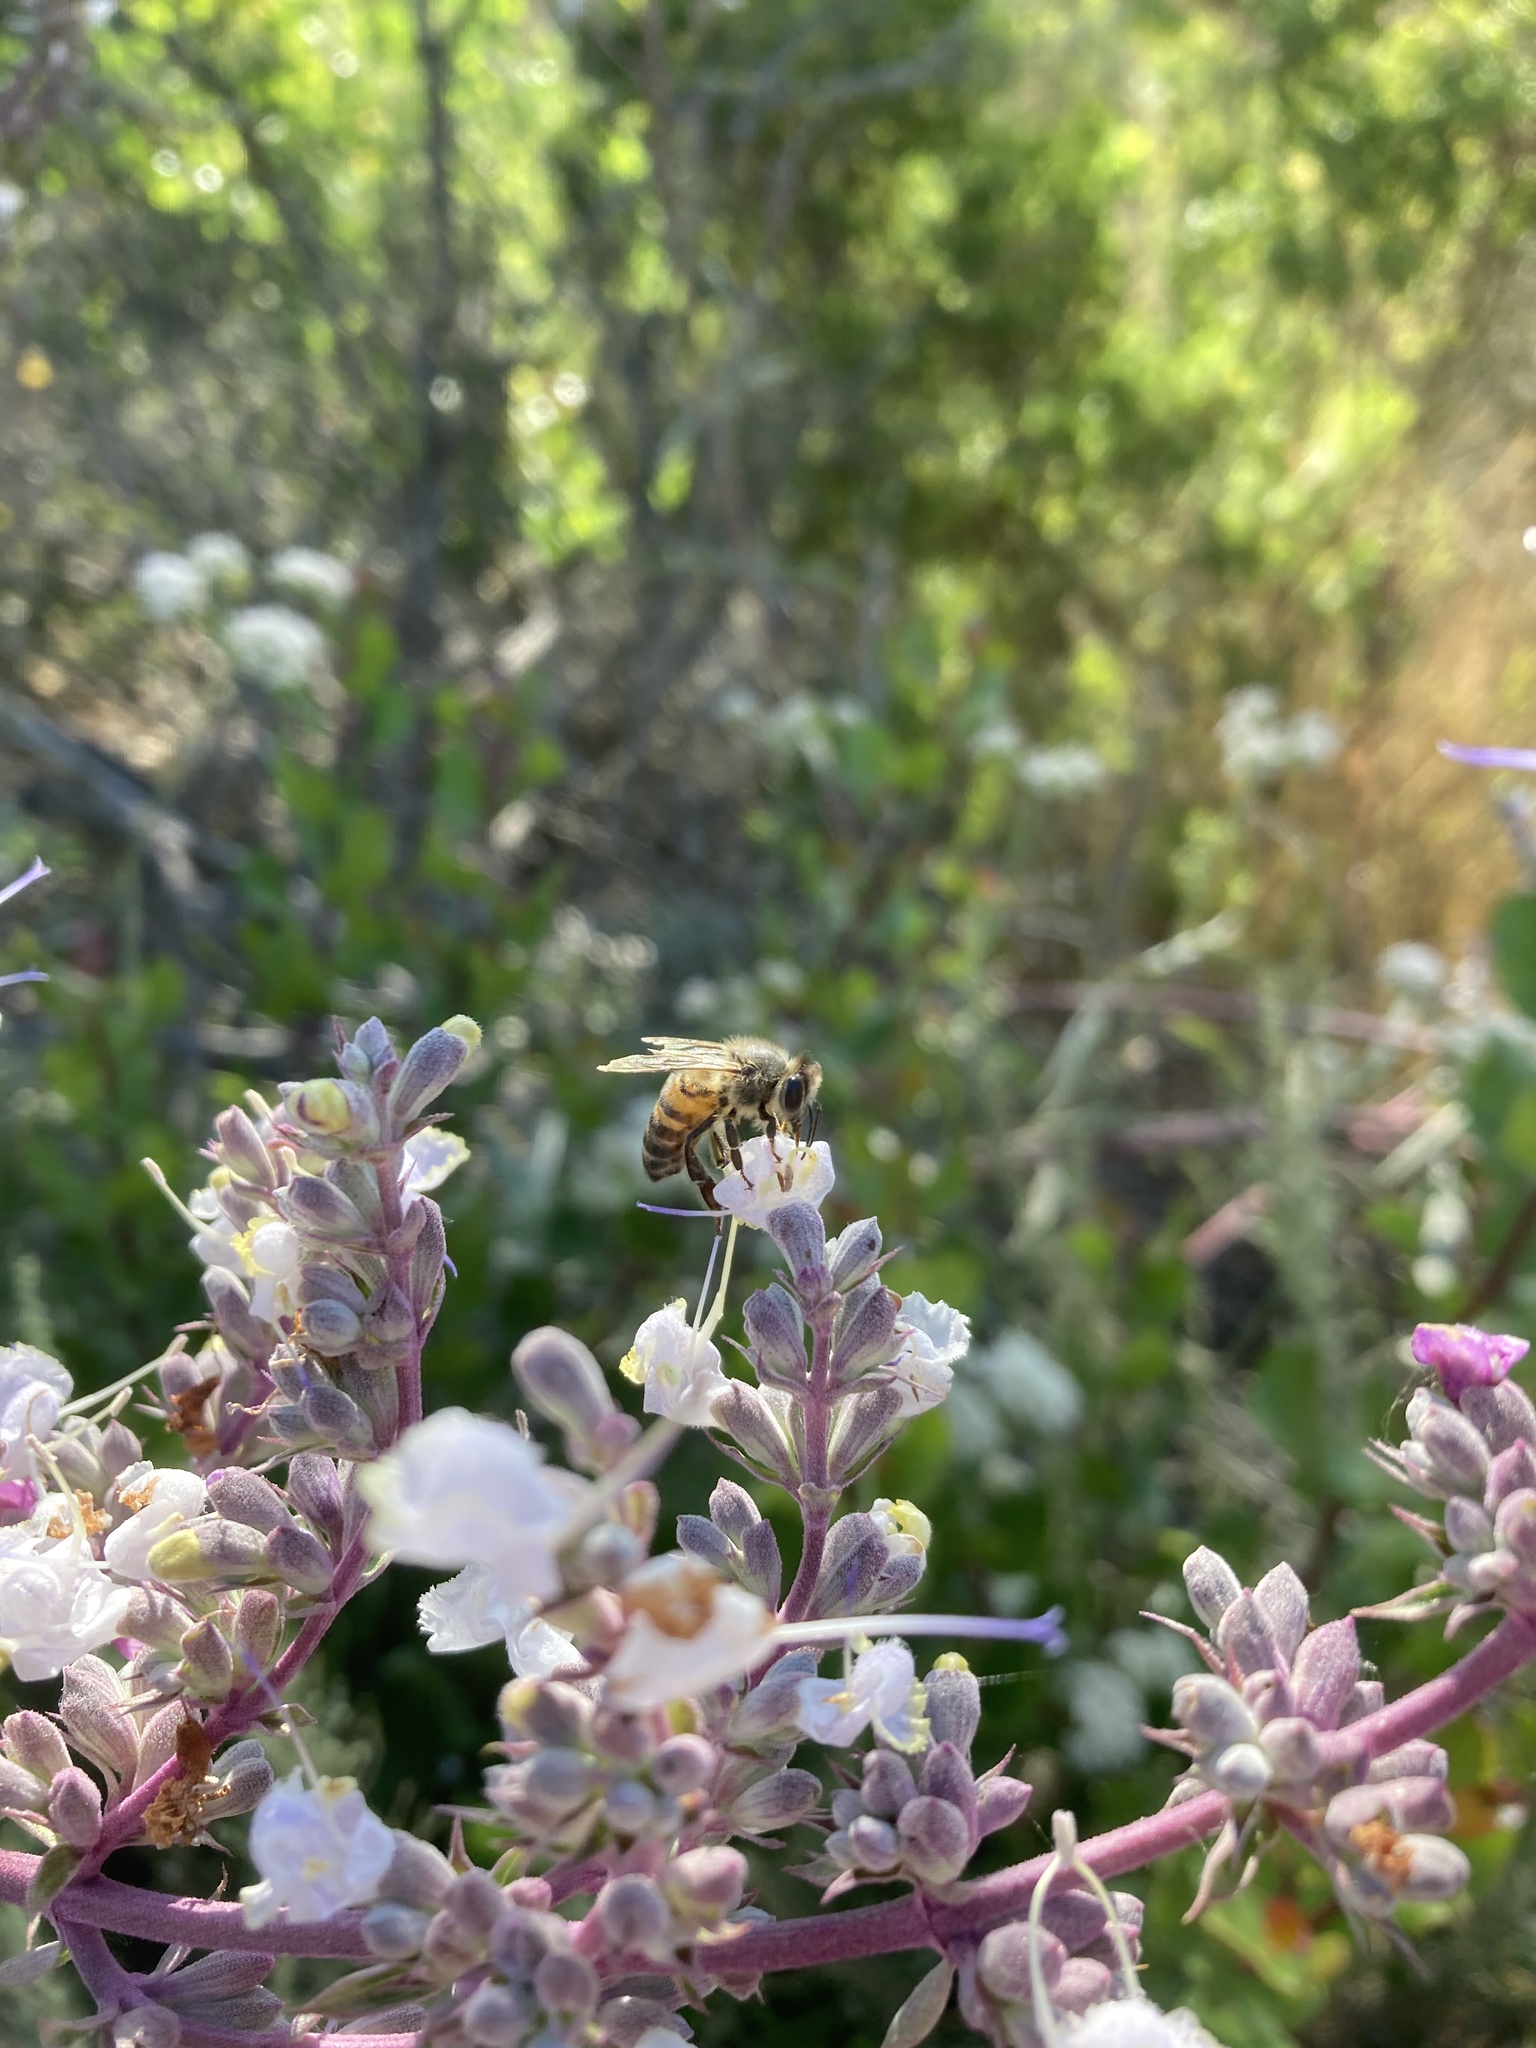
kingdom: Animalia
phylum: Arthropoda
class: Insecta
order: Hymenoptera
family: Apidae
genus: Apis
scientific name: Apis mellifera
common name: Honey bee
